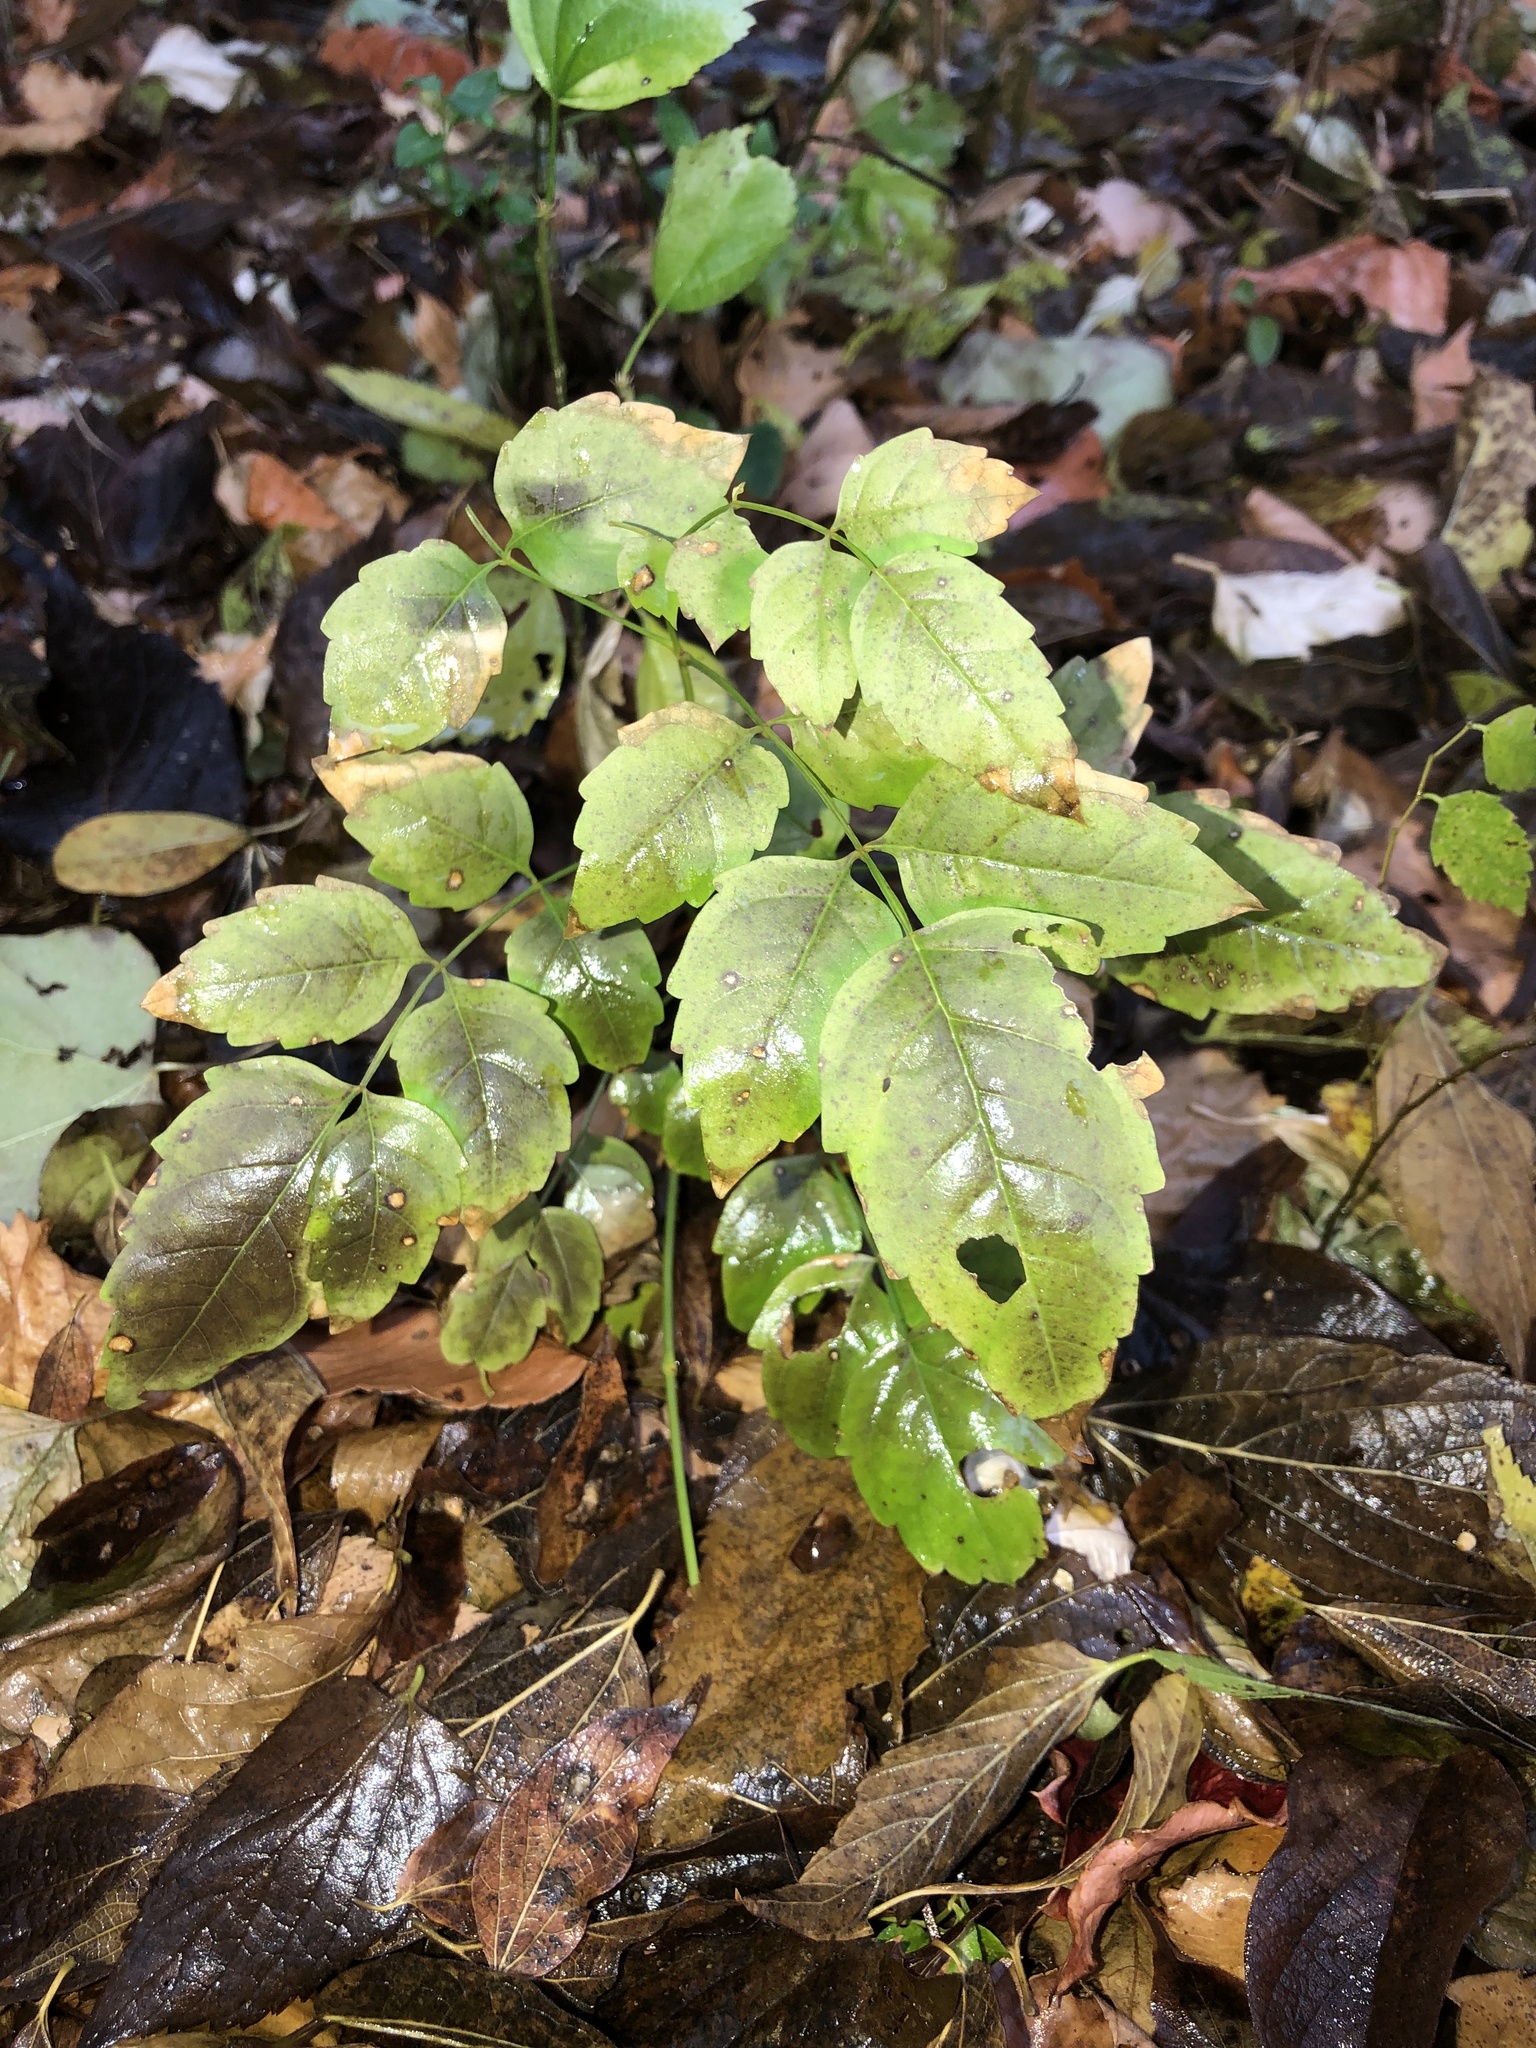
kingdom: Plantae
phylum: Tracheophyta
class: Magnoliopsida
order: Lamiales
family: Bignoniaceae
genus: Campsis
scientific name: Campsis radicans
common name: Trumpet-creeper
